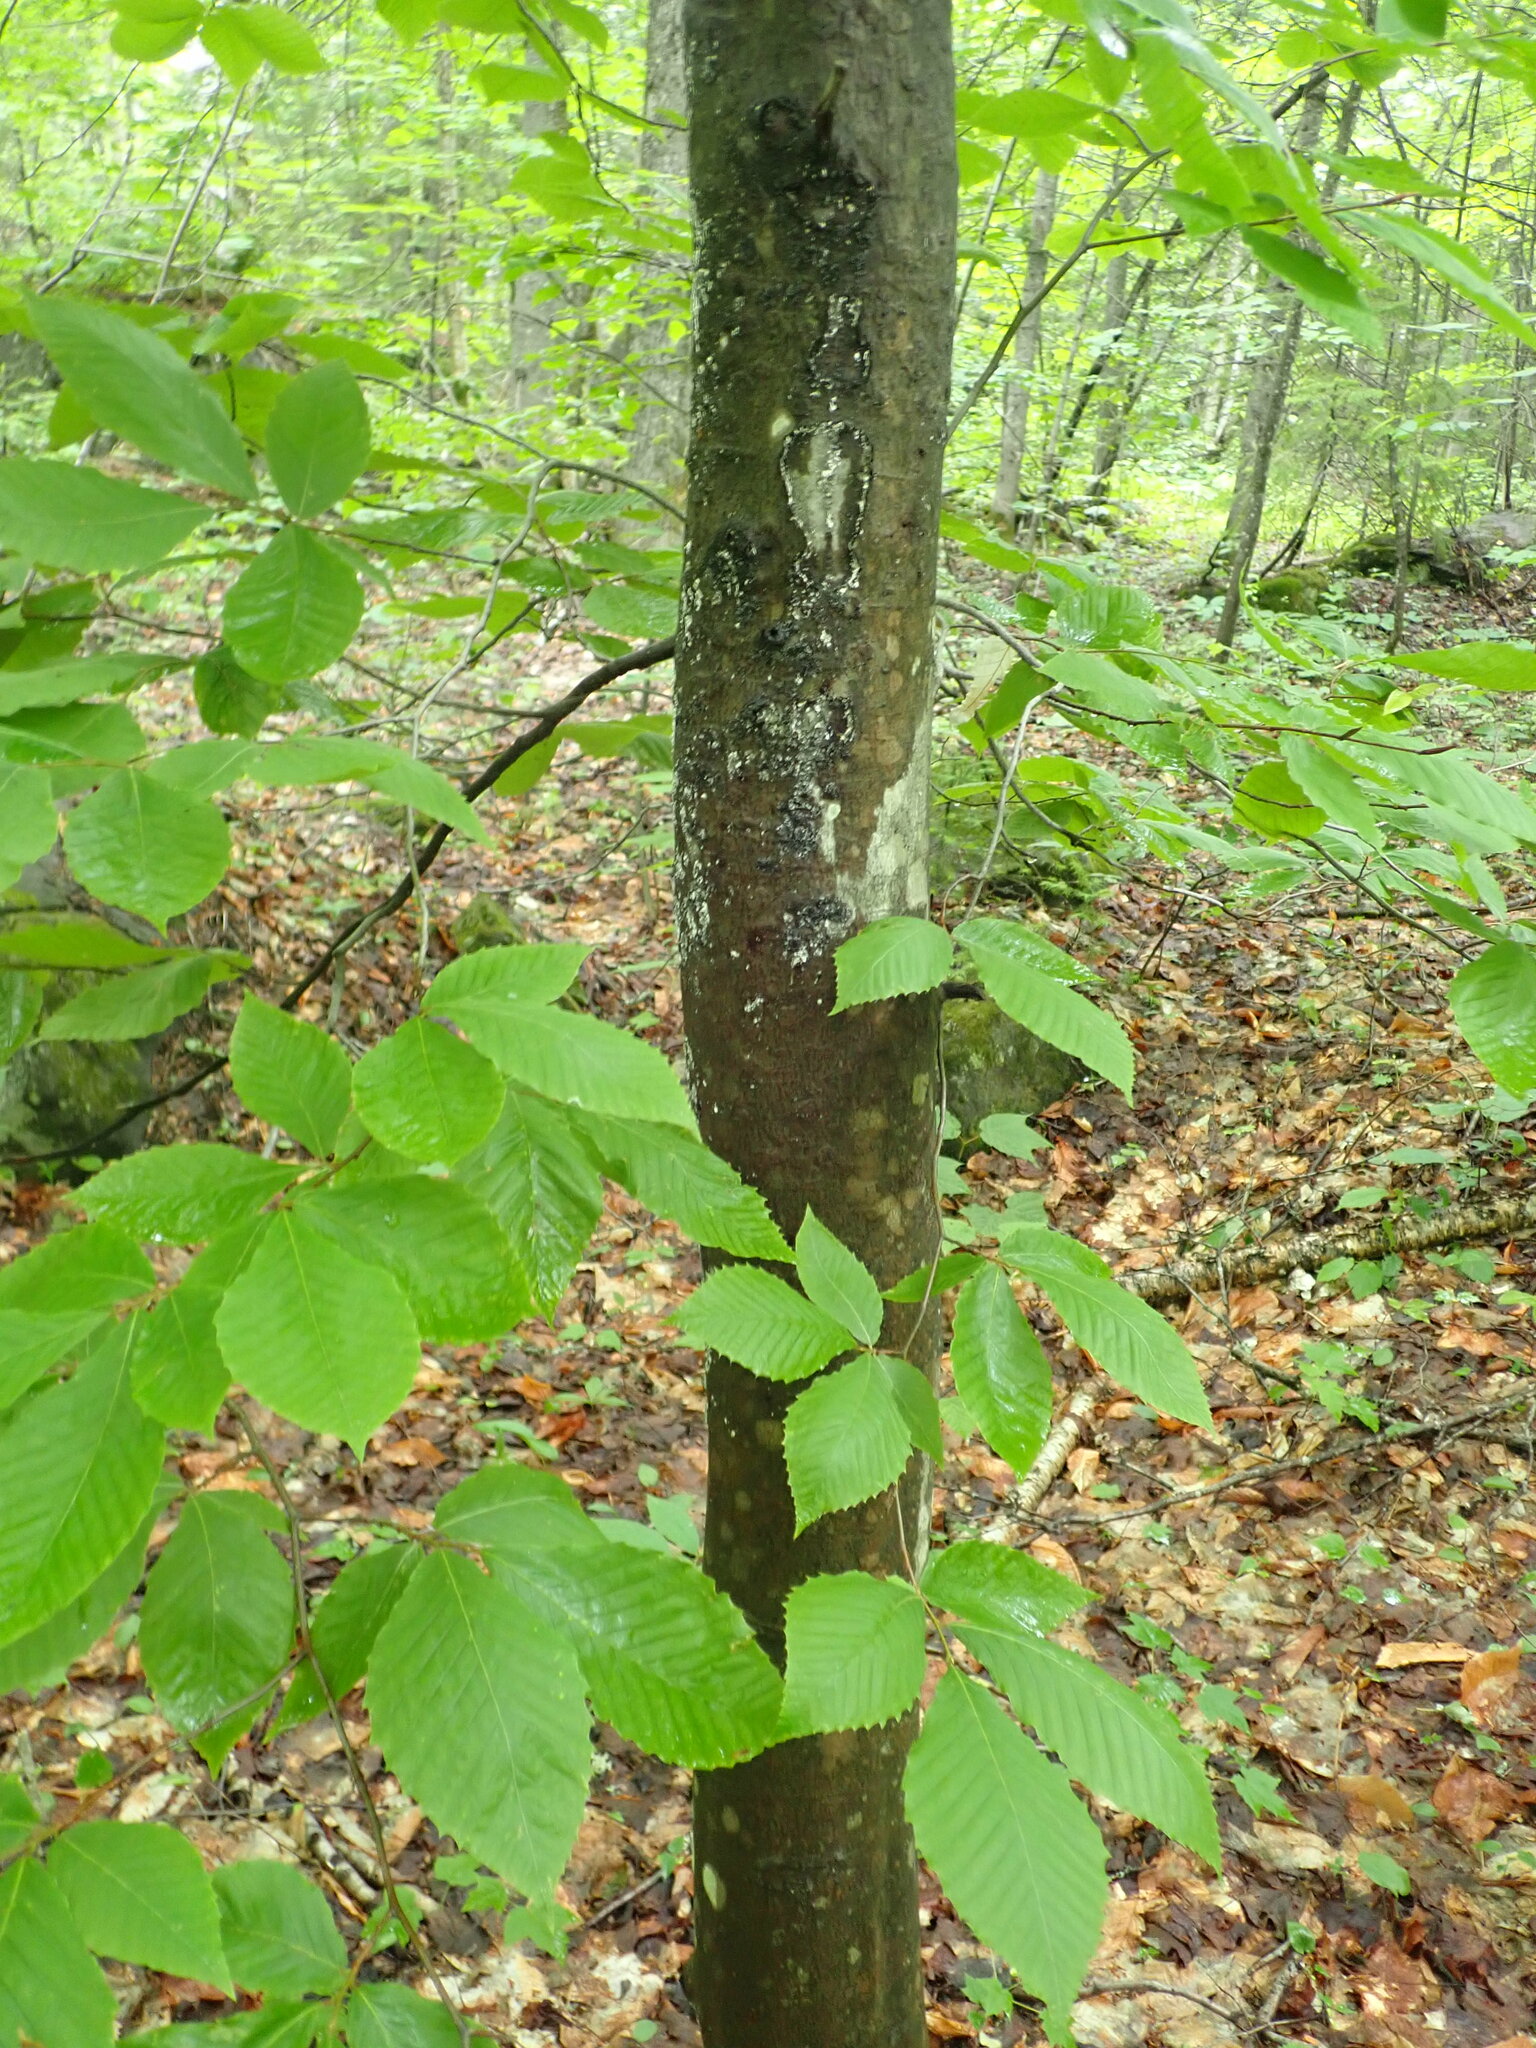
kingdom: Plantae
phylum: Tracheophyta
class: Magnoliopsida
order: Fagales
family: Fagaceae
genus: Fagus
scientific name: Fagus grandifolia
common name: American beech
